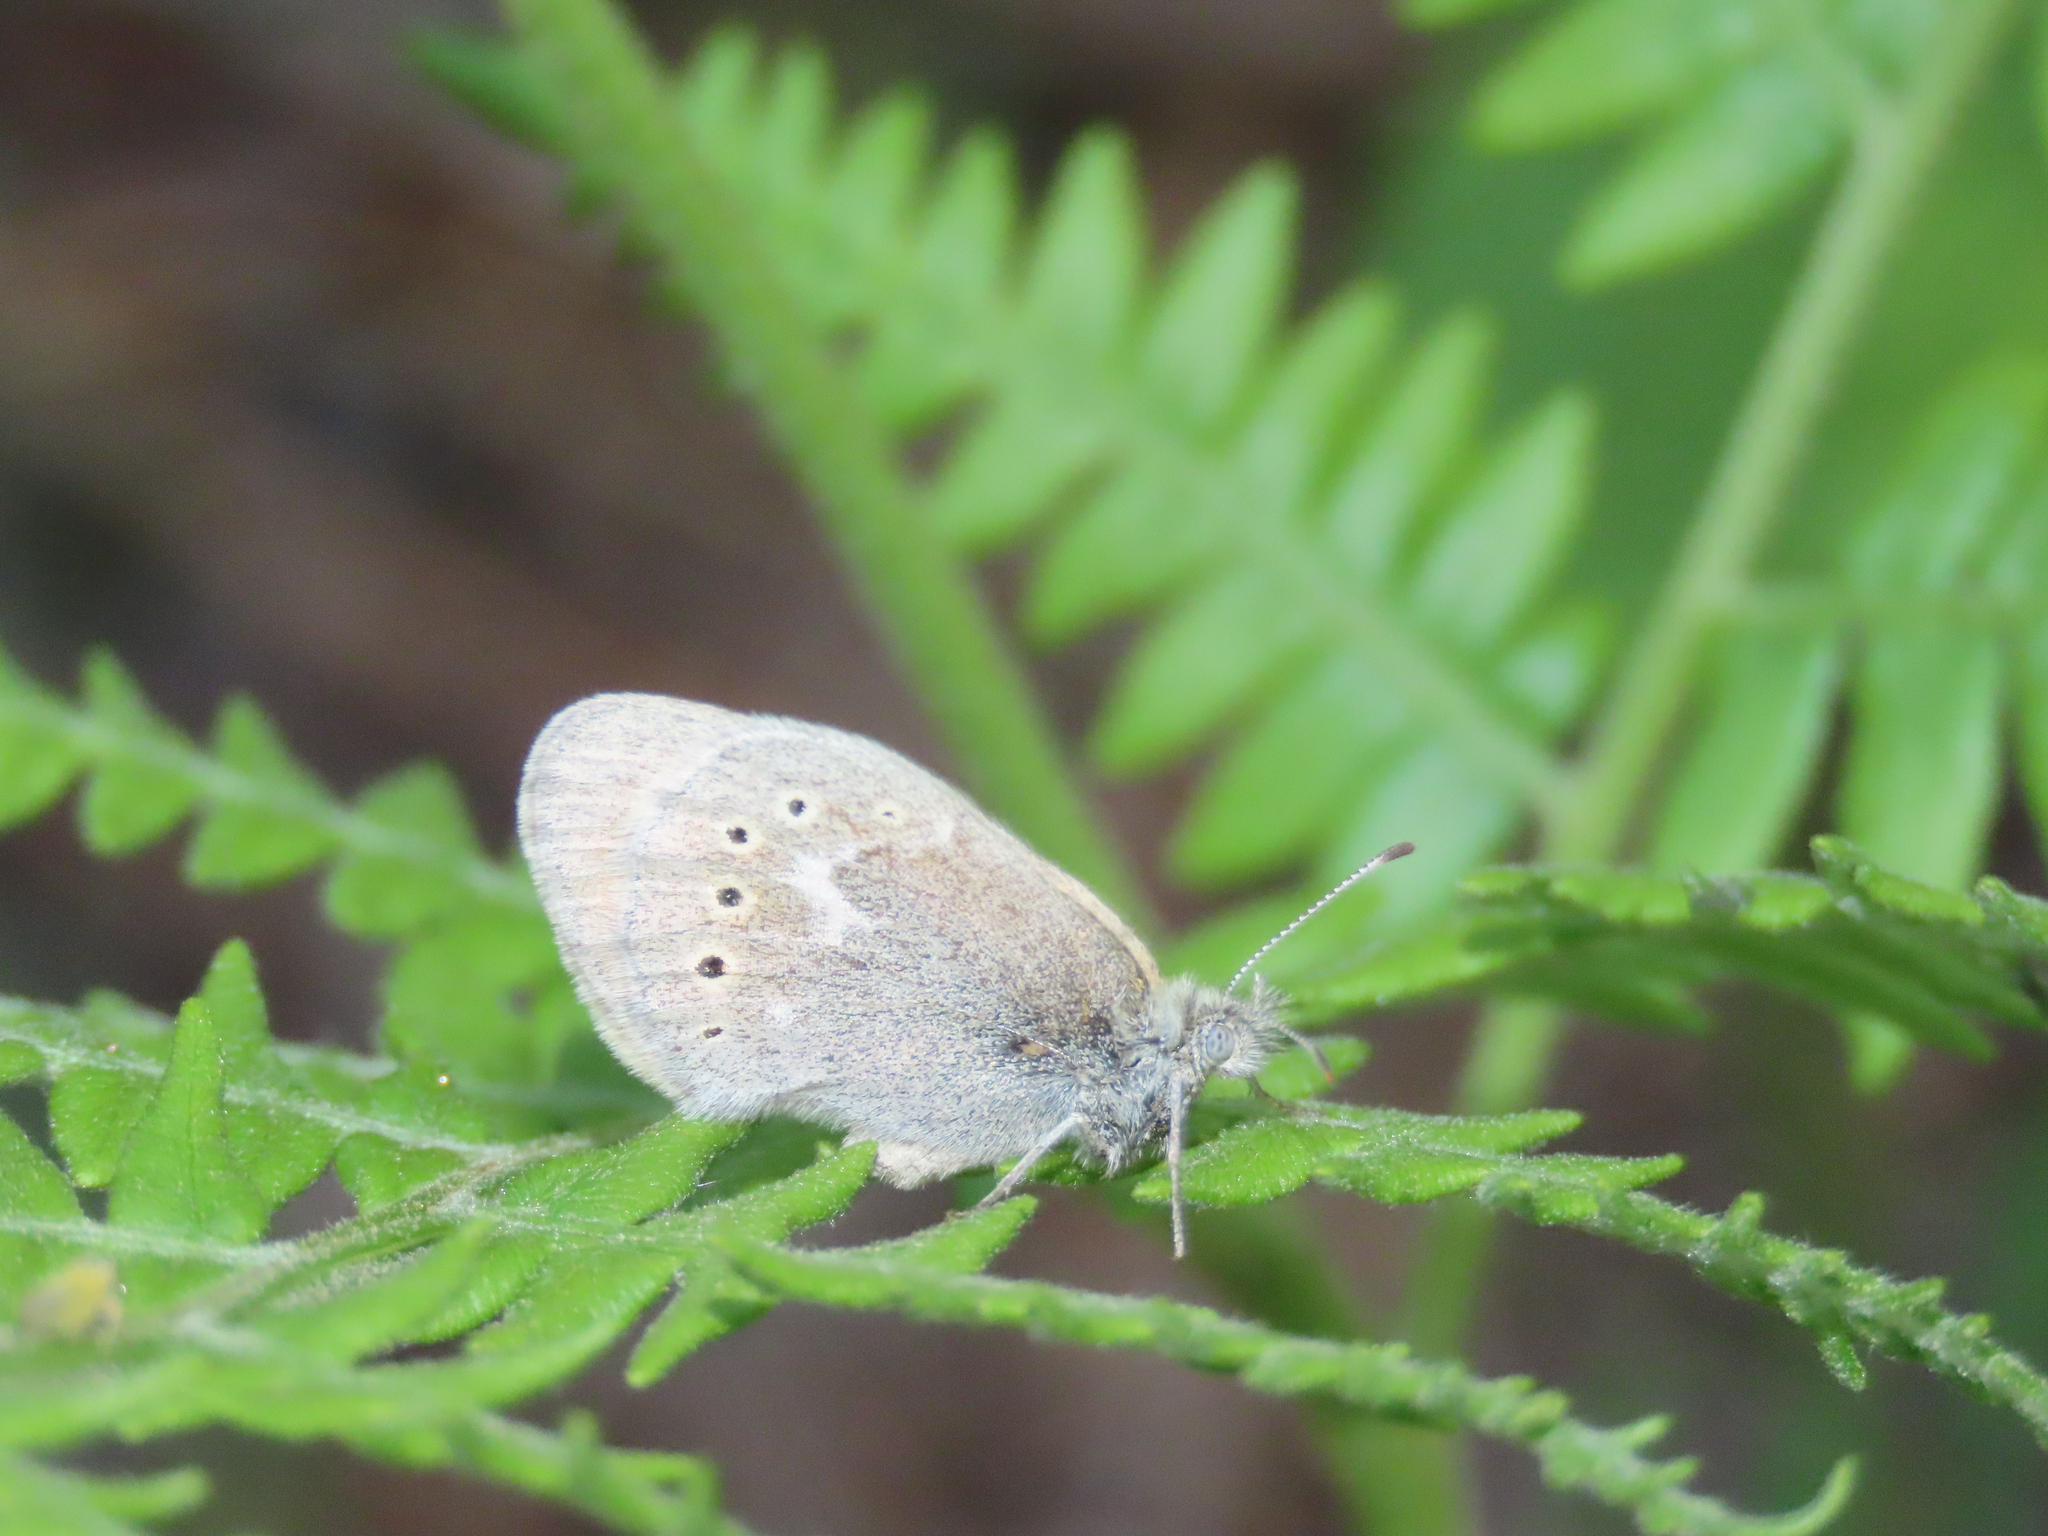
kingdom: Animalia
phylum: Arthropoda
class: Insecta
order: Lepidoptera
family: Nymphalidae
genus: Coenonympha
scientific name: Coenonympha california
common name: Common ringlet
